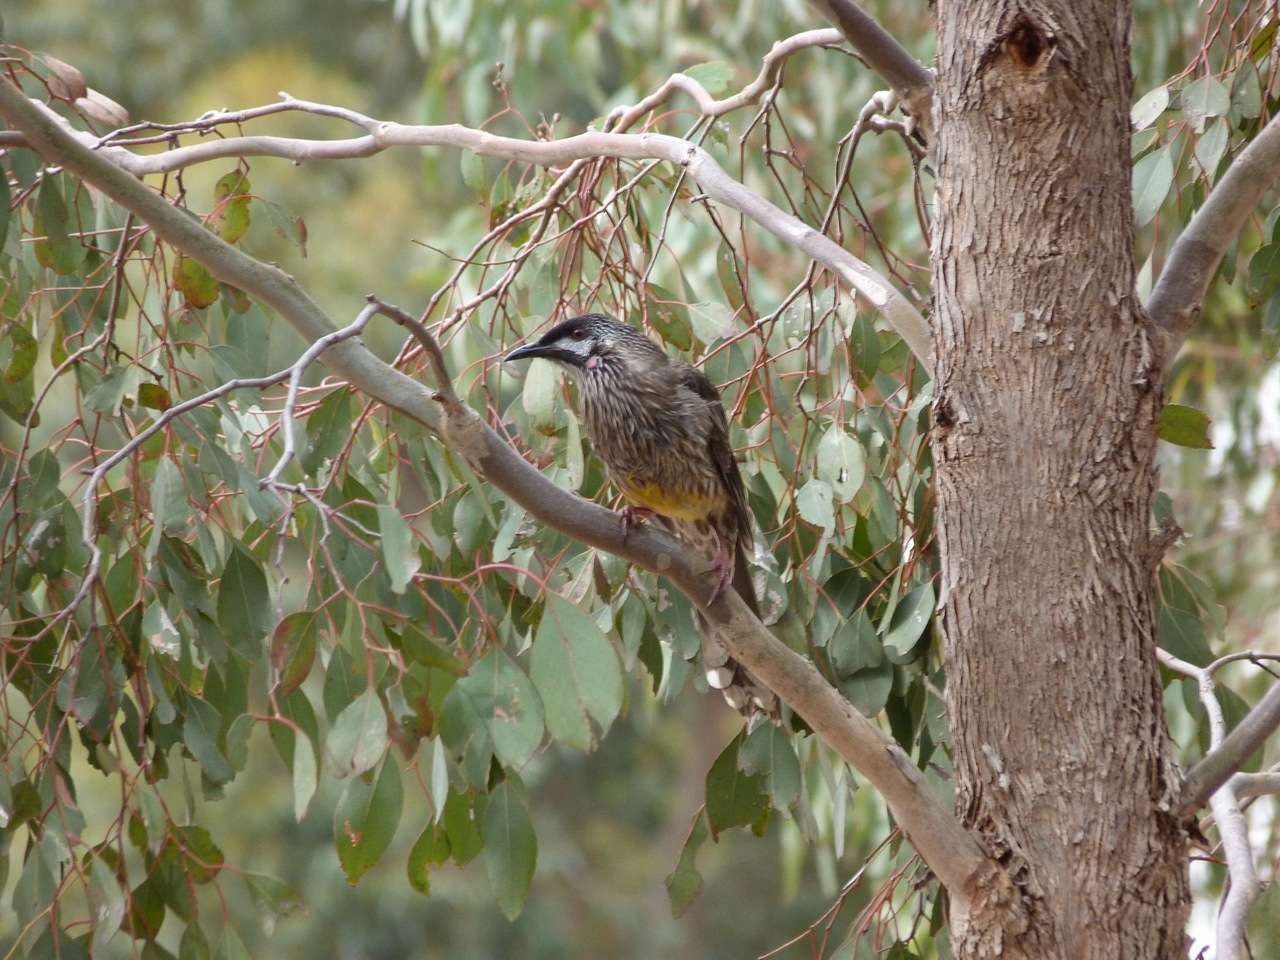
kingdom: Animalia
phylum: Chordata
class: Aves
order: Passeriformes
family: Meliphagidae
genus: Anthochaera
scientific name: Anthochaera carunculata
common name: Red wattlebird
